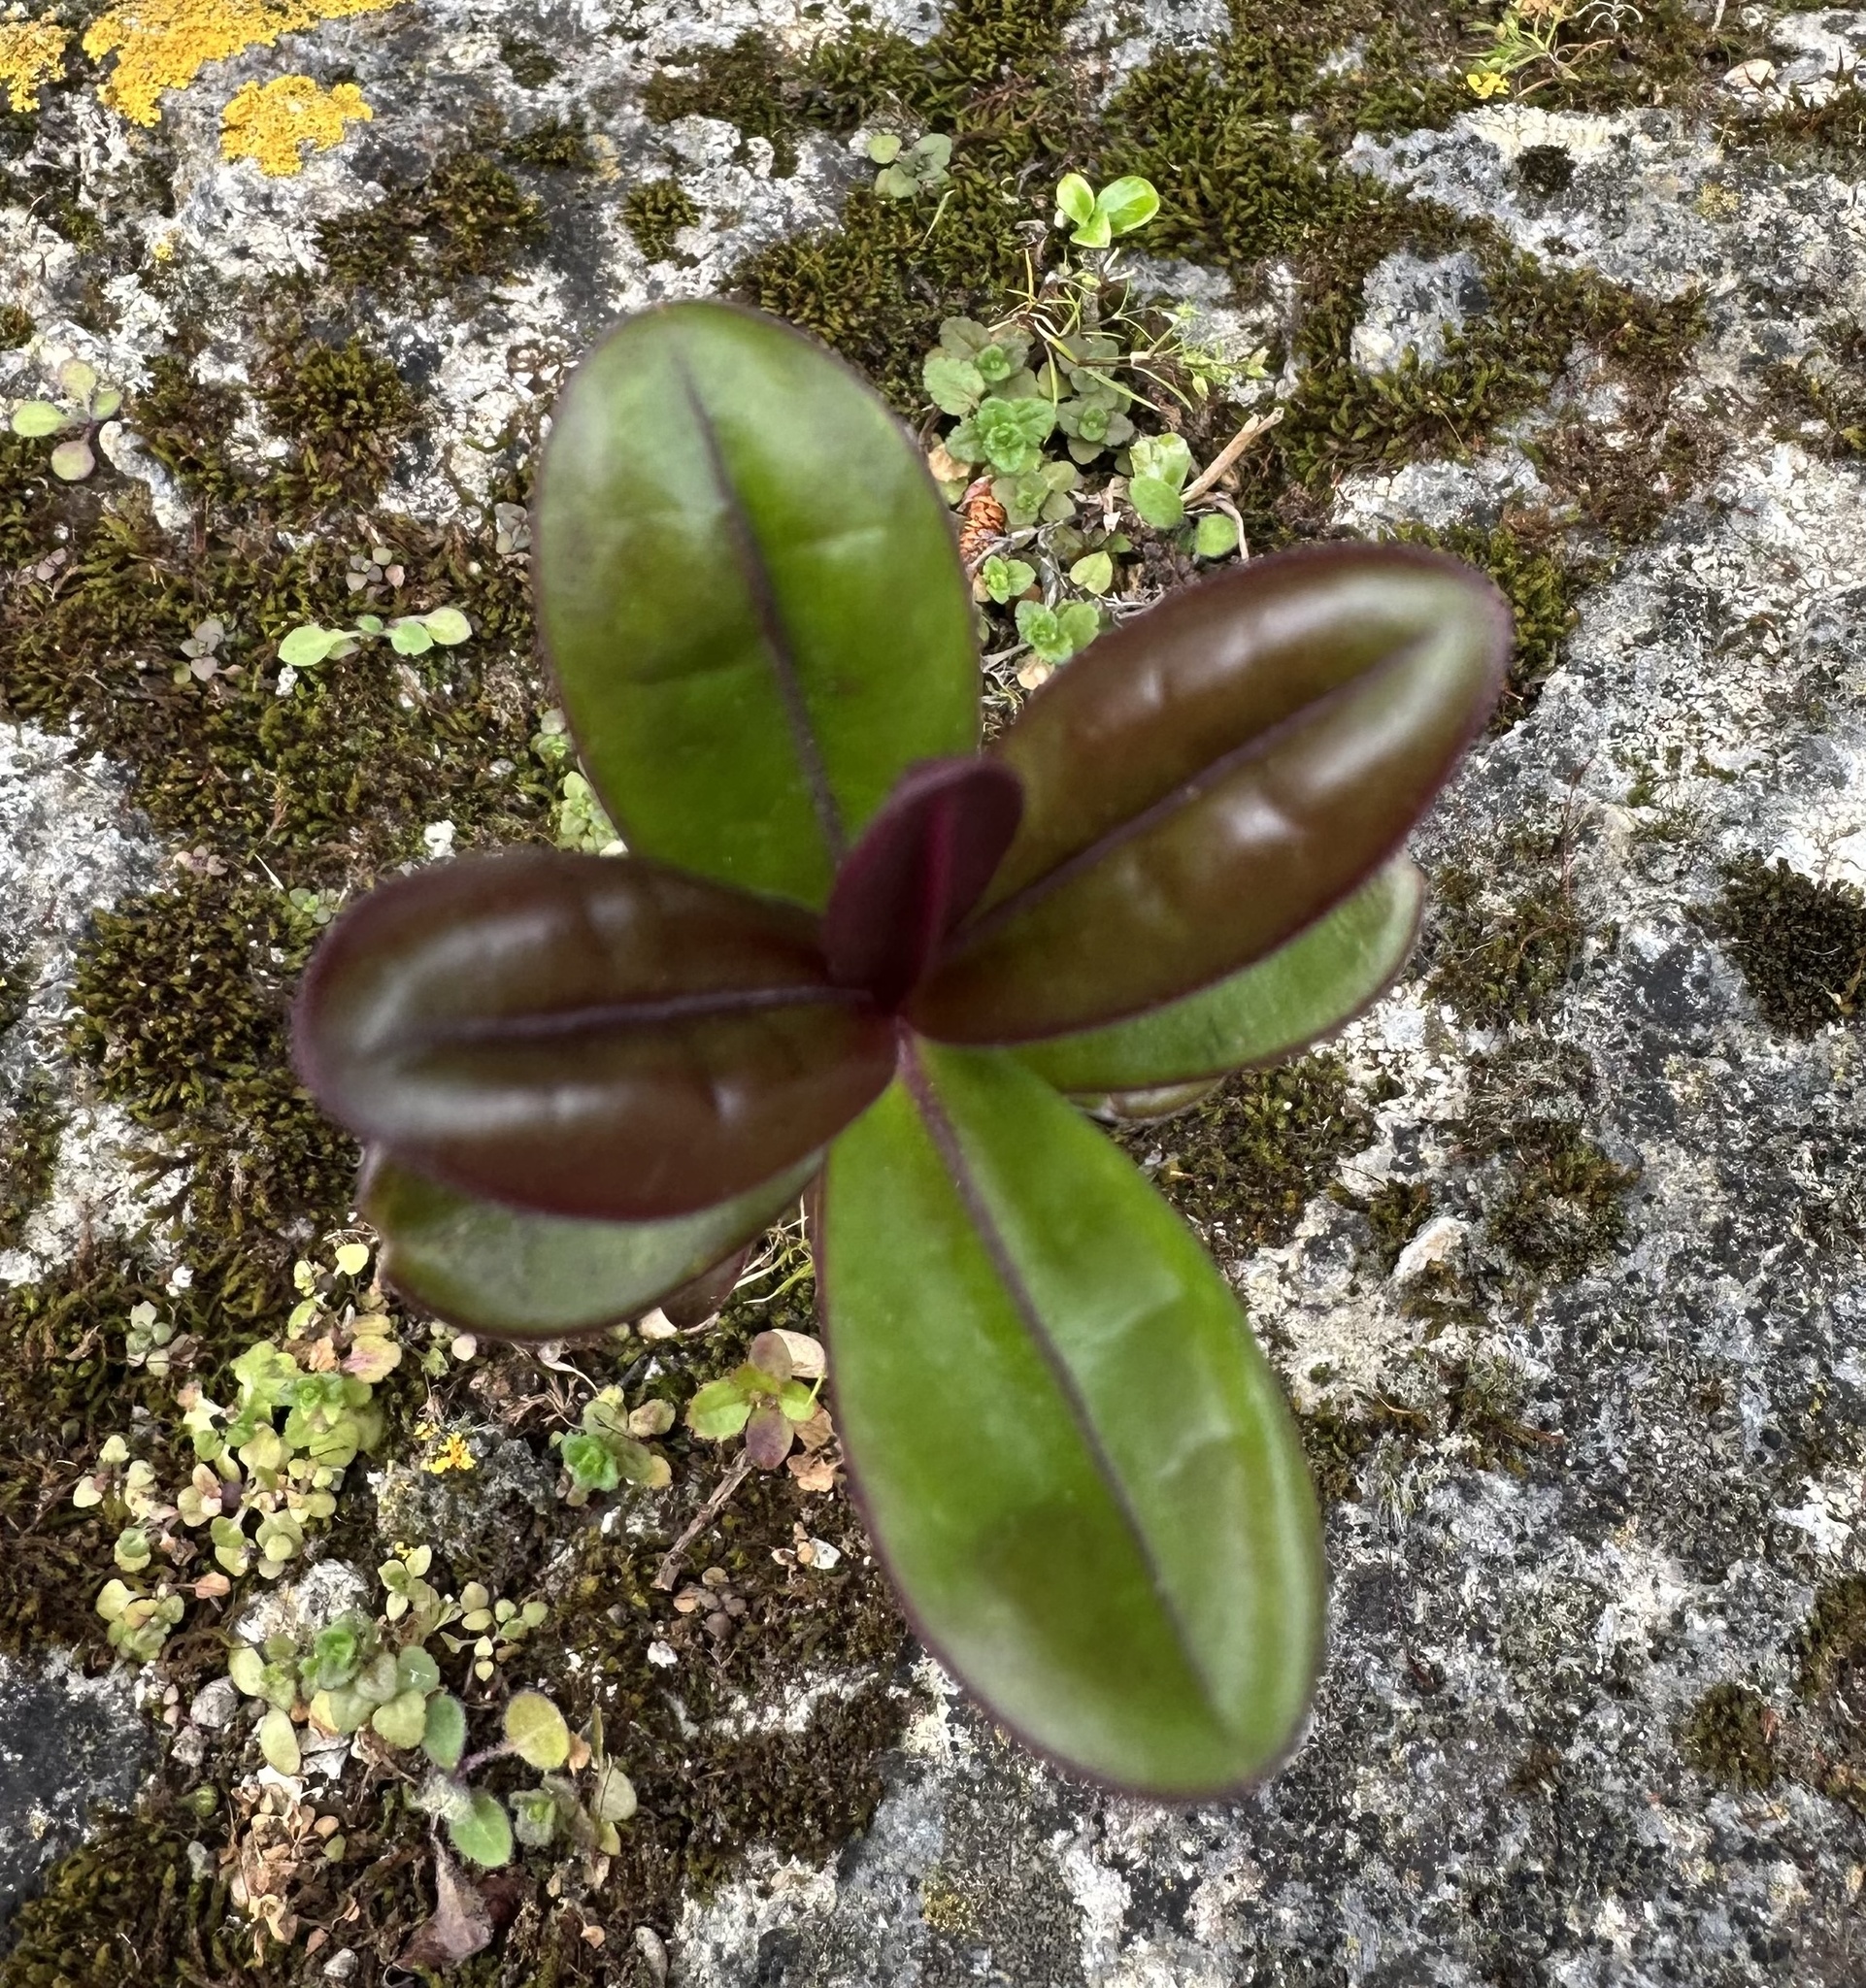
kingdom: Plantae
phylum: Tracheophyta
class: Magnoliopsida
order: Lamiales
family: Plantaginaceae
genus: Veronica
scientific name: Veronica speciosa
